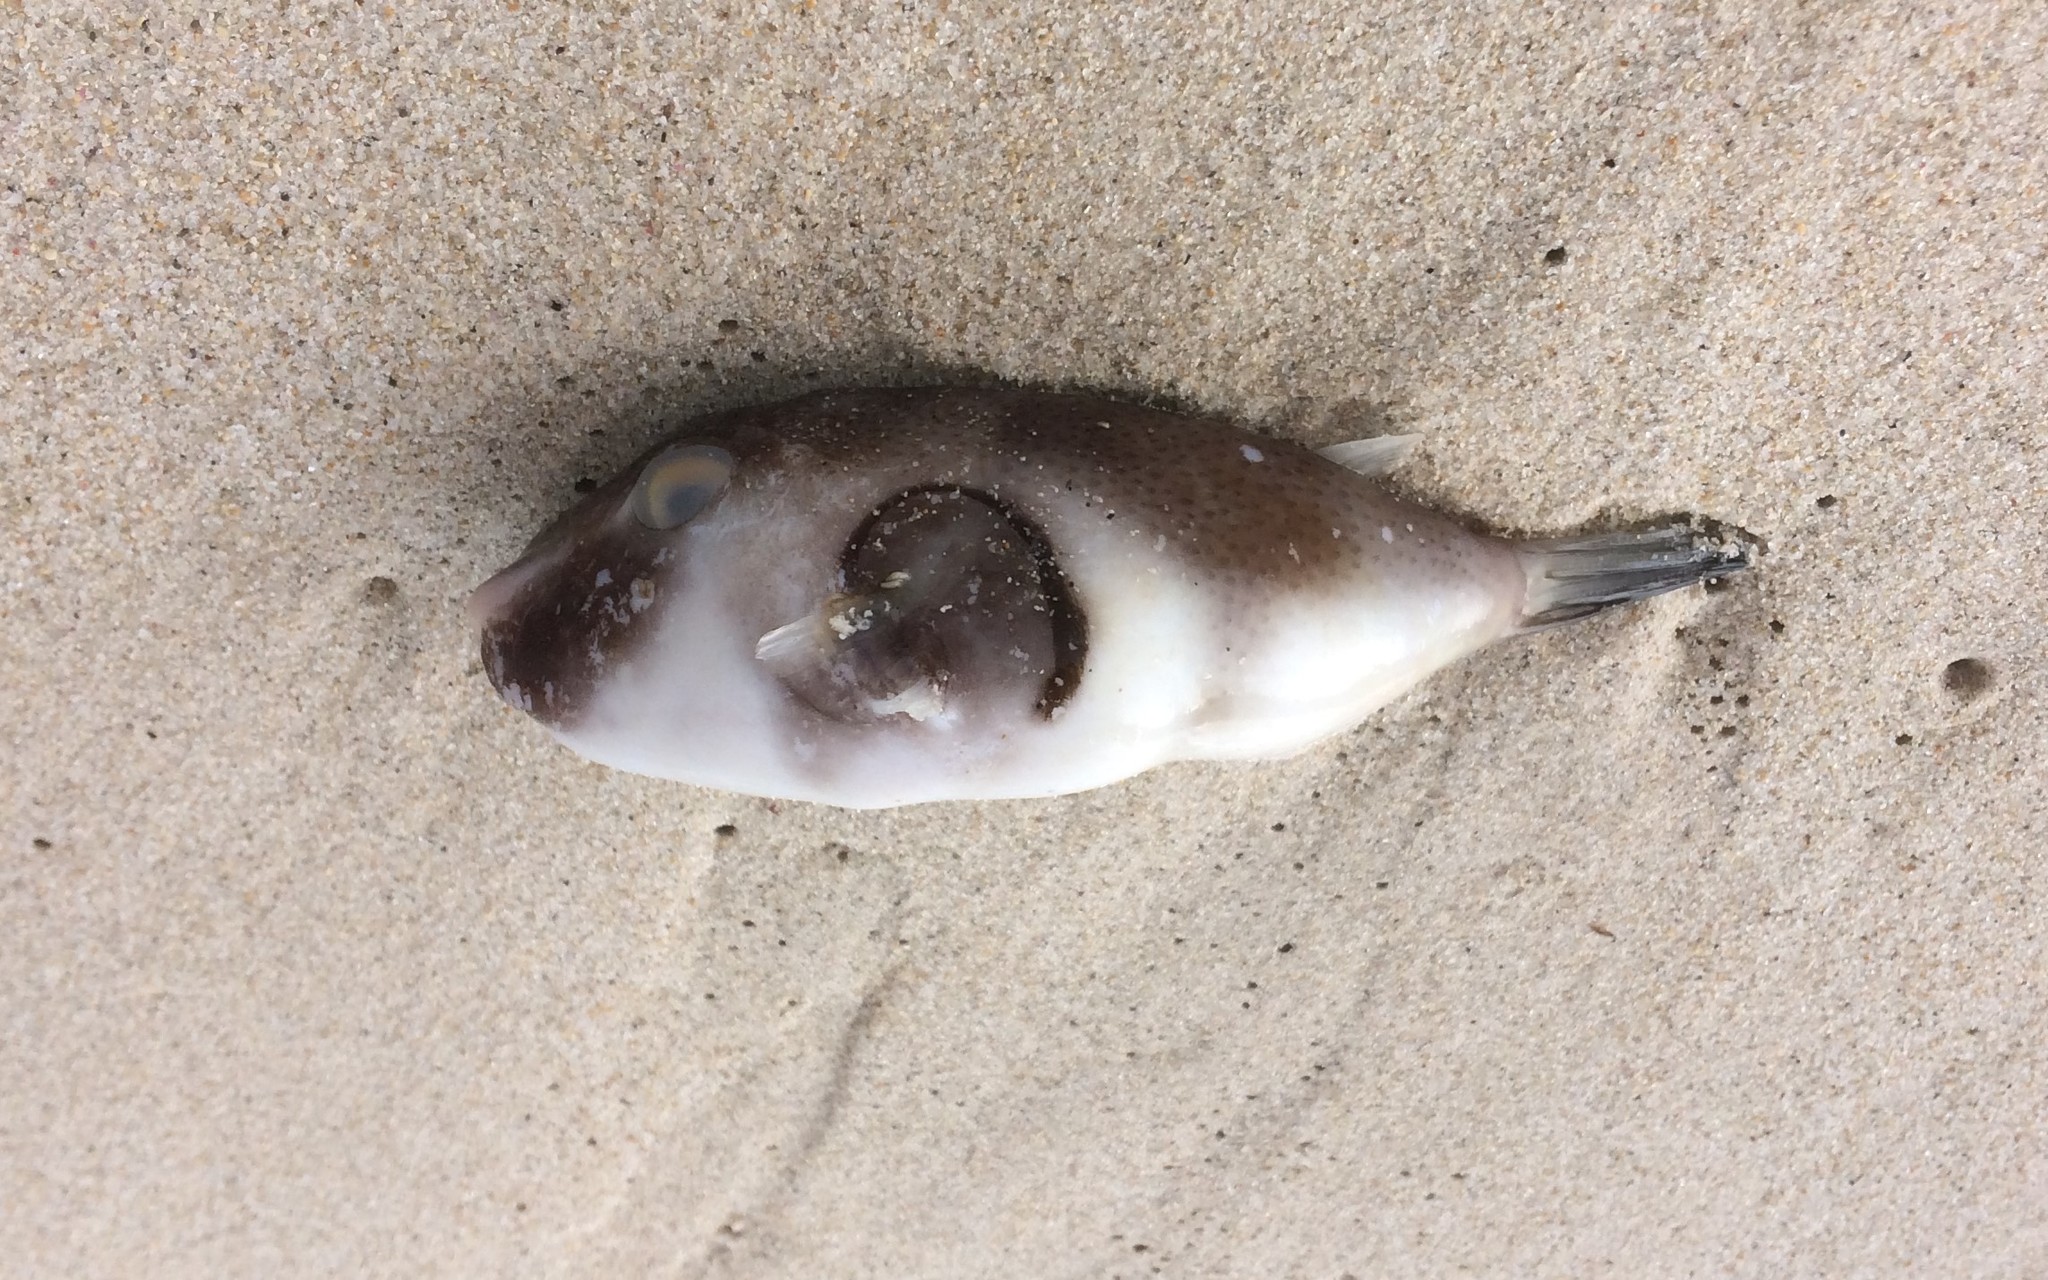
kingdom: Animalia
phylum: Chordata
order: Tetraodontiformes
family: Tetraodontidae
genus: Omegophora
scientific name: Omegophora armilla
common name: Ringed pufferfish
